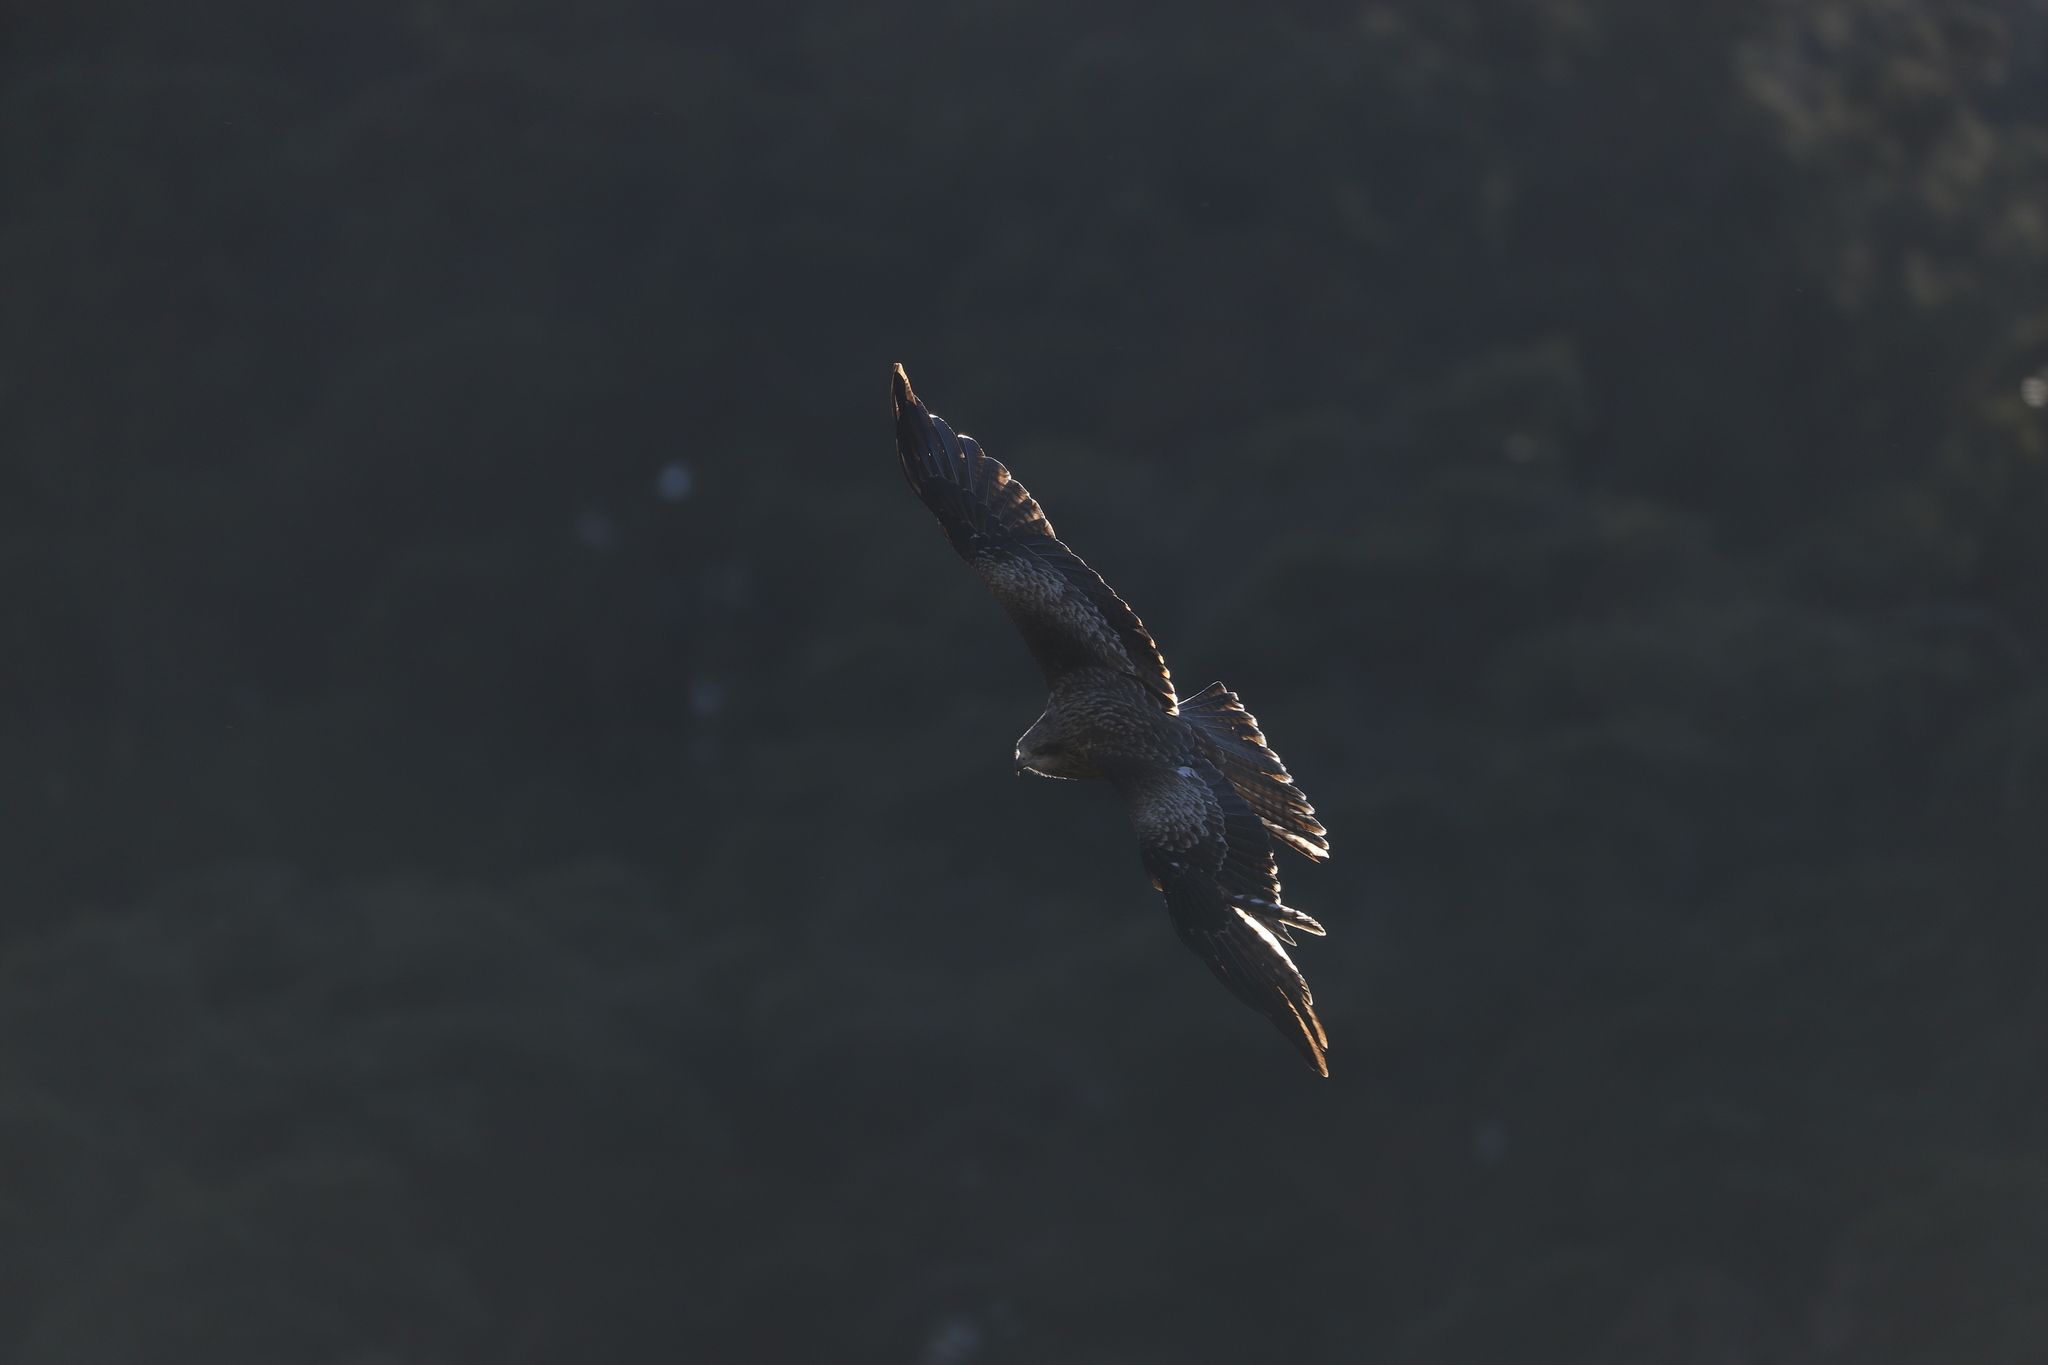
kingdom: Animalia
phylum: Chordata
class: Aves
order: Accipitriformes
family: Accipitridae
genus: Milvus
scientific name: Milvus migrans
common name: Black kite
